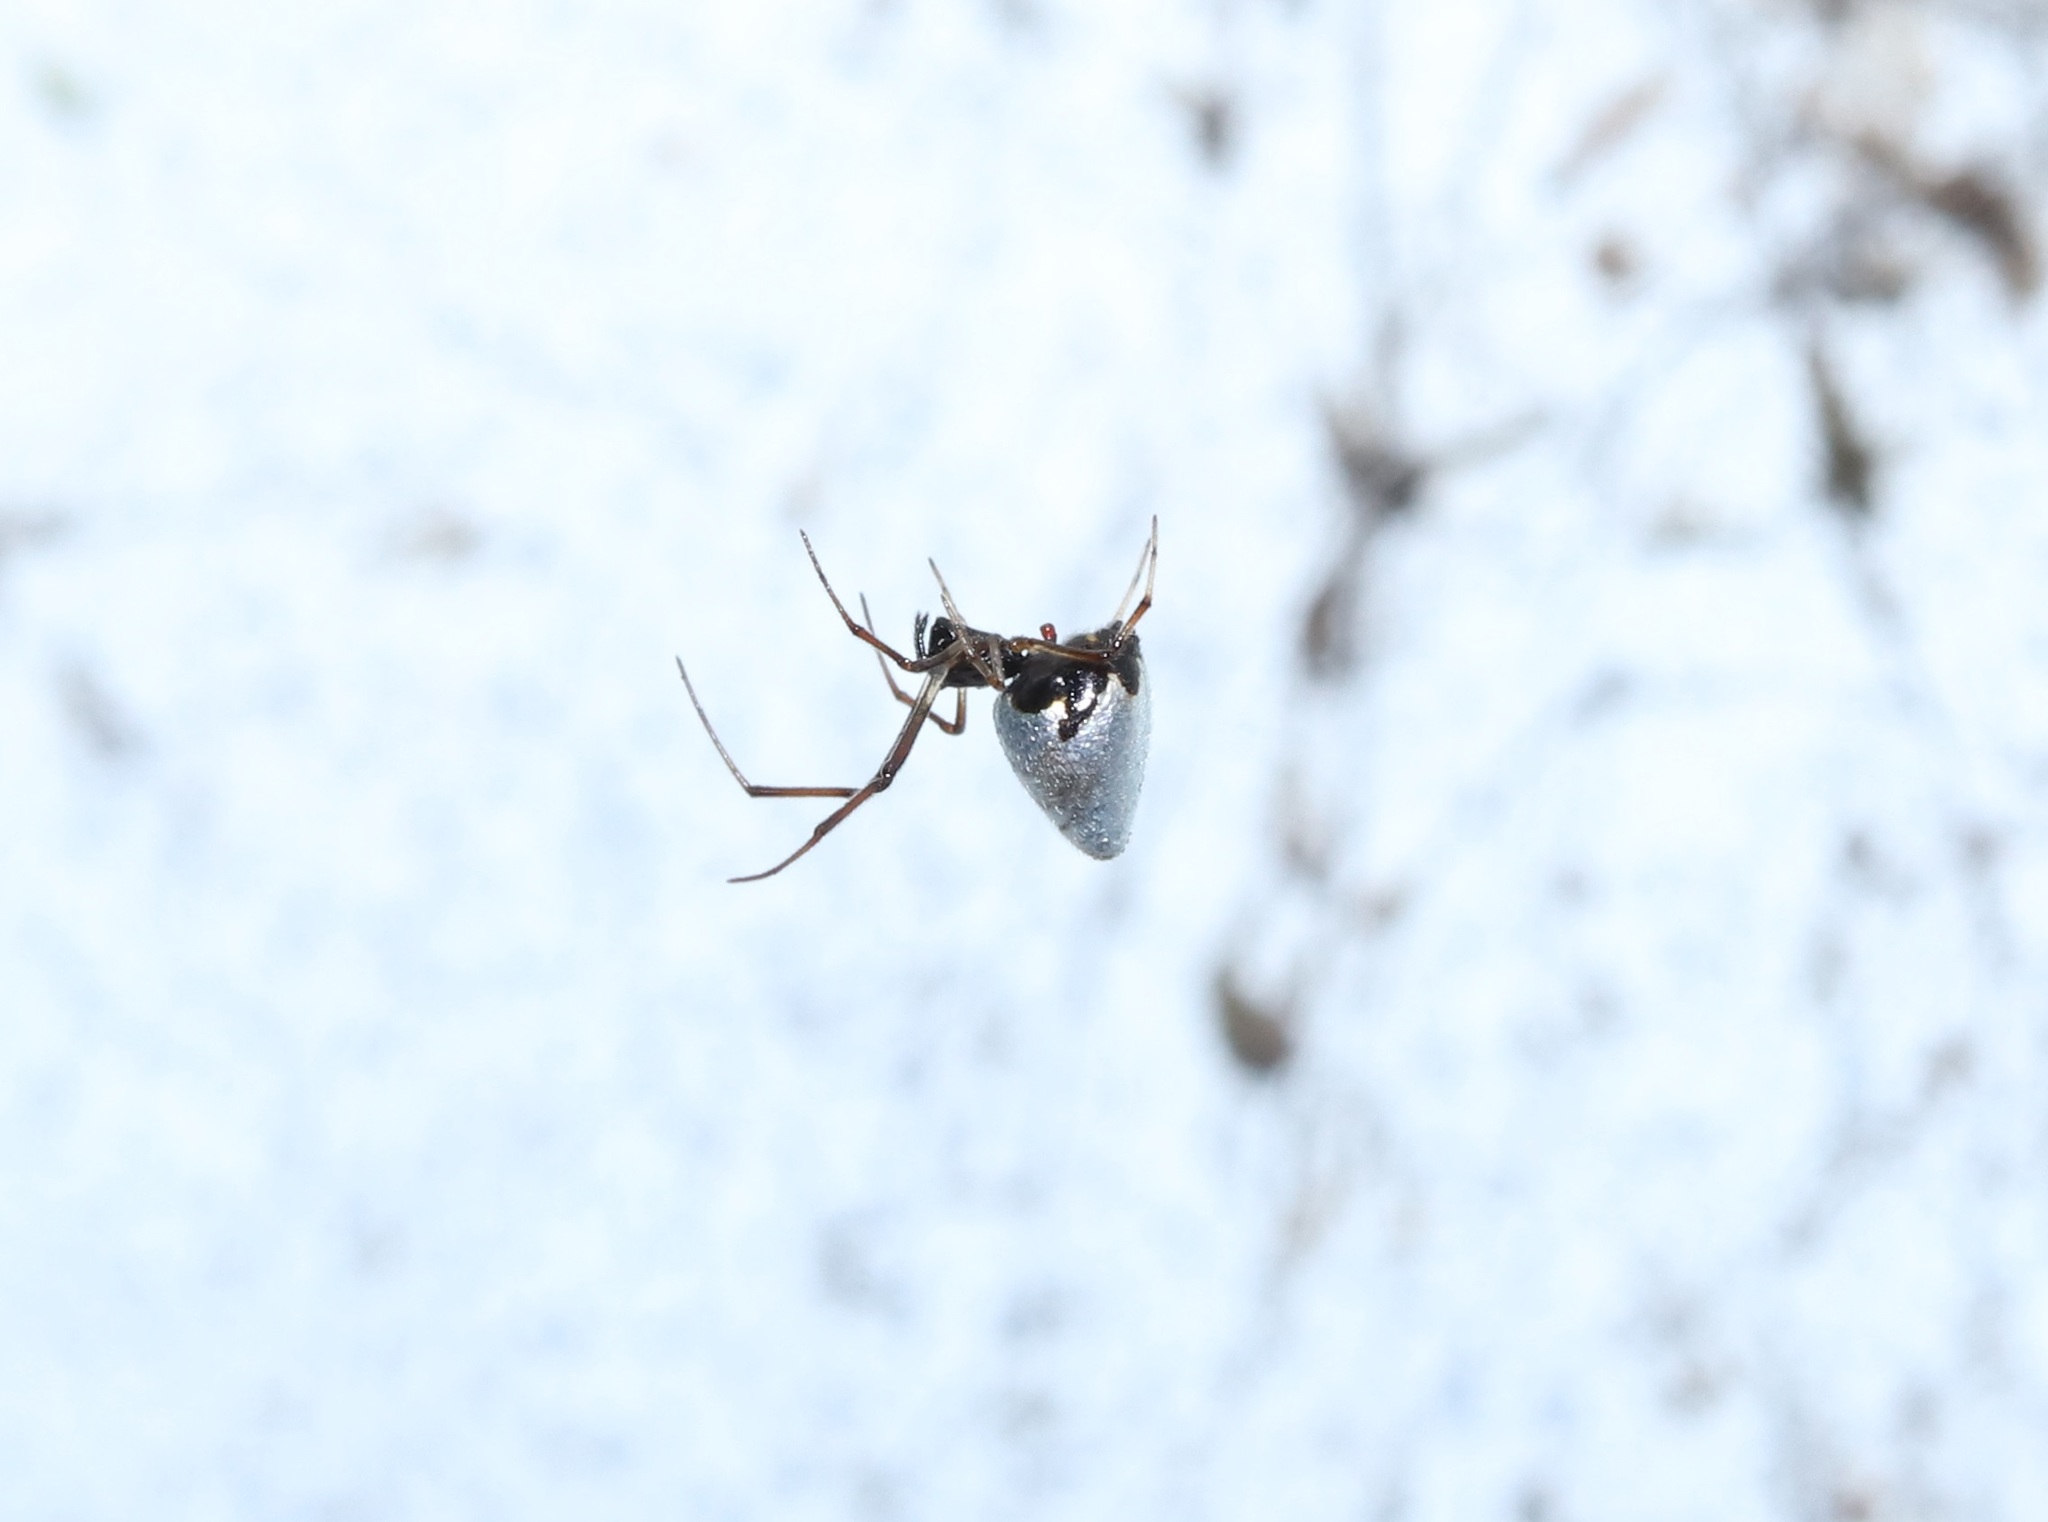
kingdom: Animalia
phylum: Arthropoda
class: Arachnida
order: Araneae
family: Theridiidae
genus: Argyrodes
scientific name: Argyrodes bonadea
